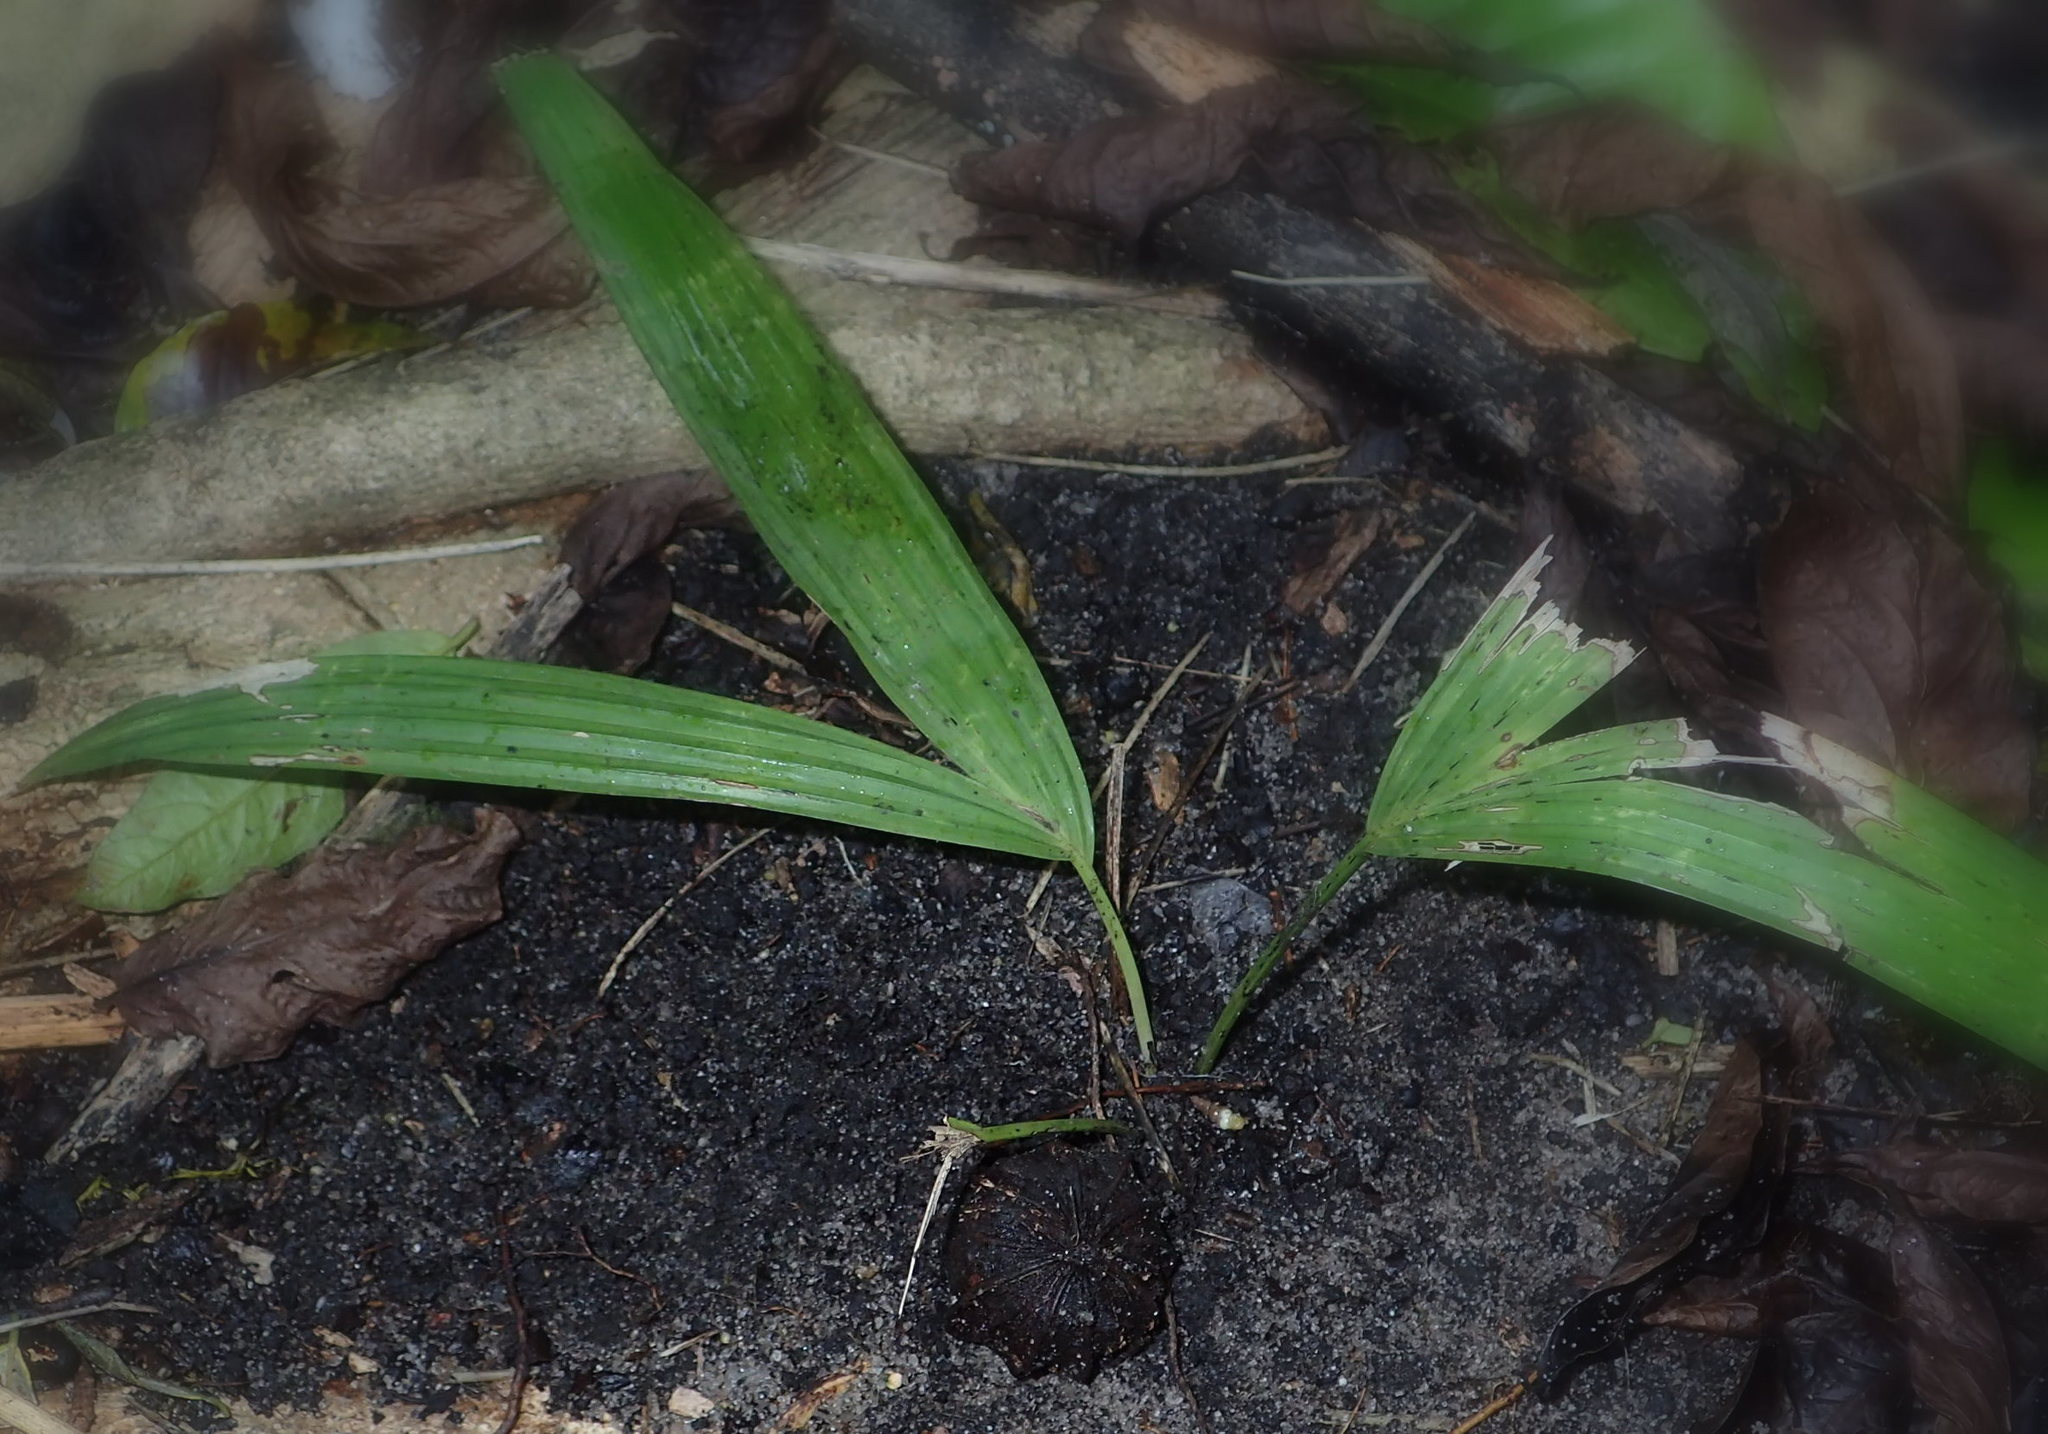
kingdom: Plantae
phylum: Tracheophyta
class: Liliopsida
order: Arecales
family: Arecaceae
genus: Satranala
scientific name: Satranala decussilvae
